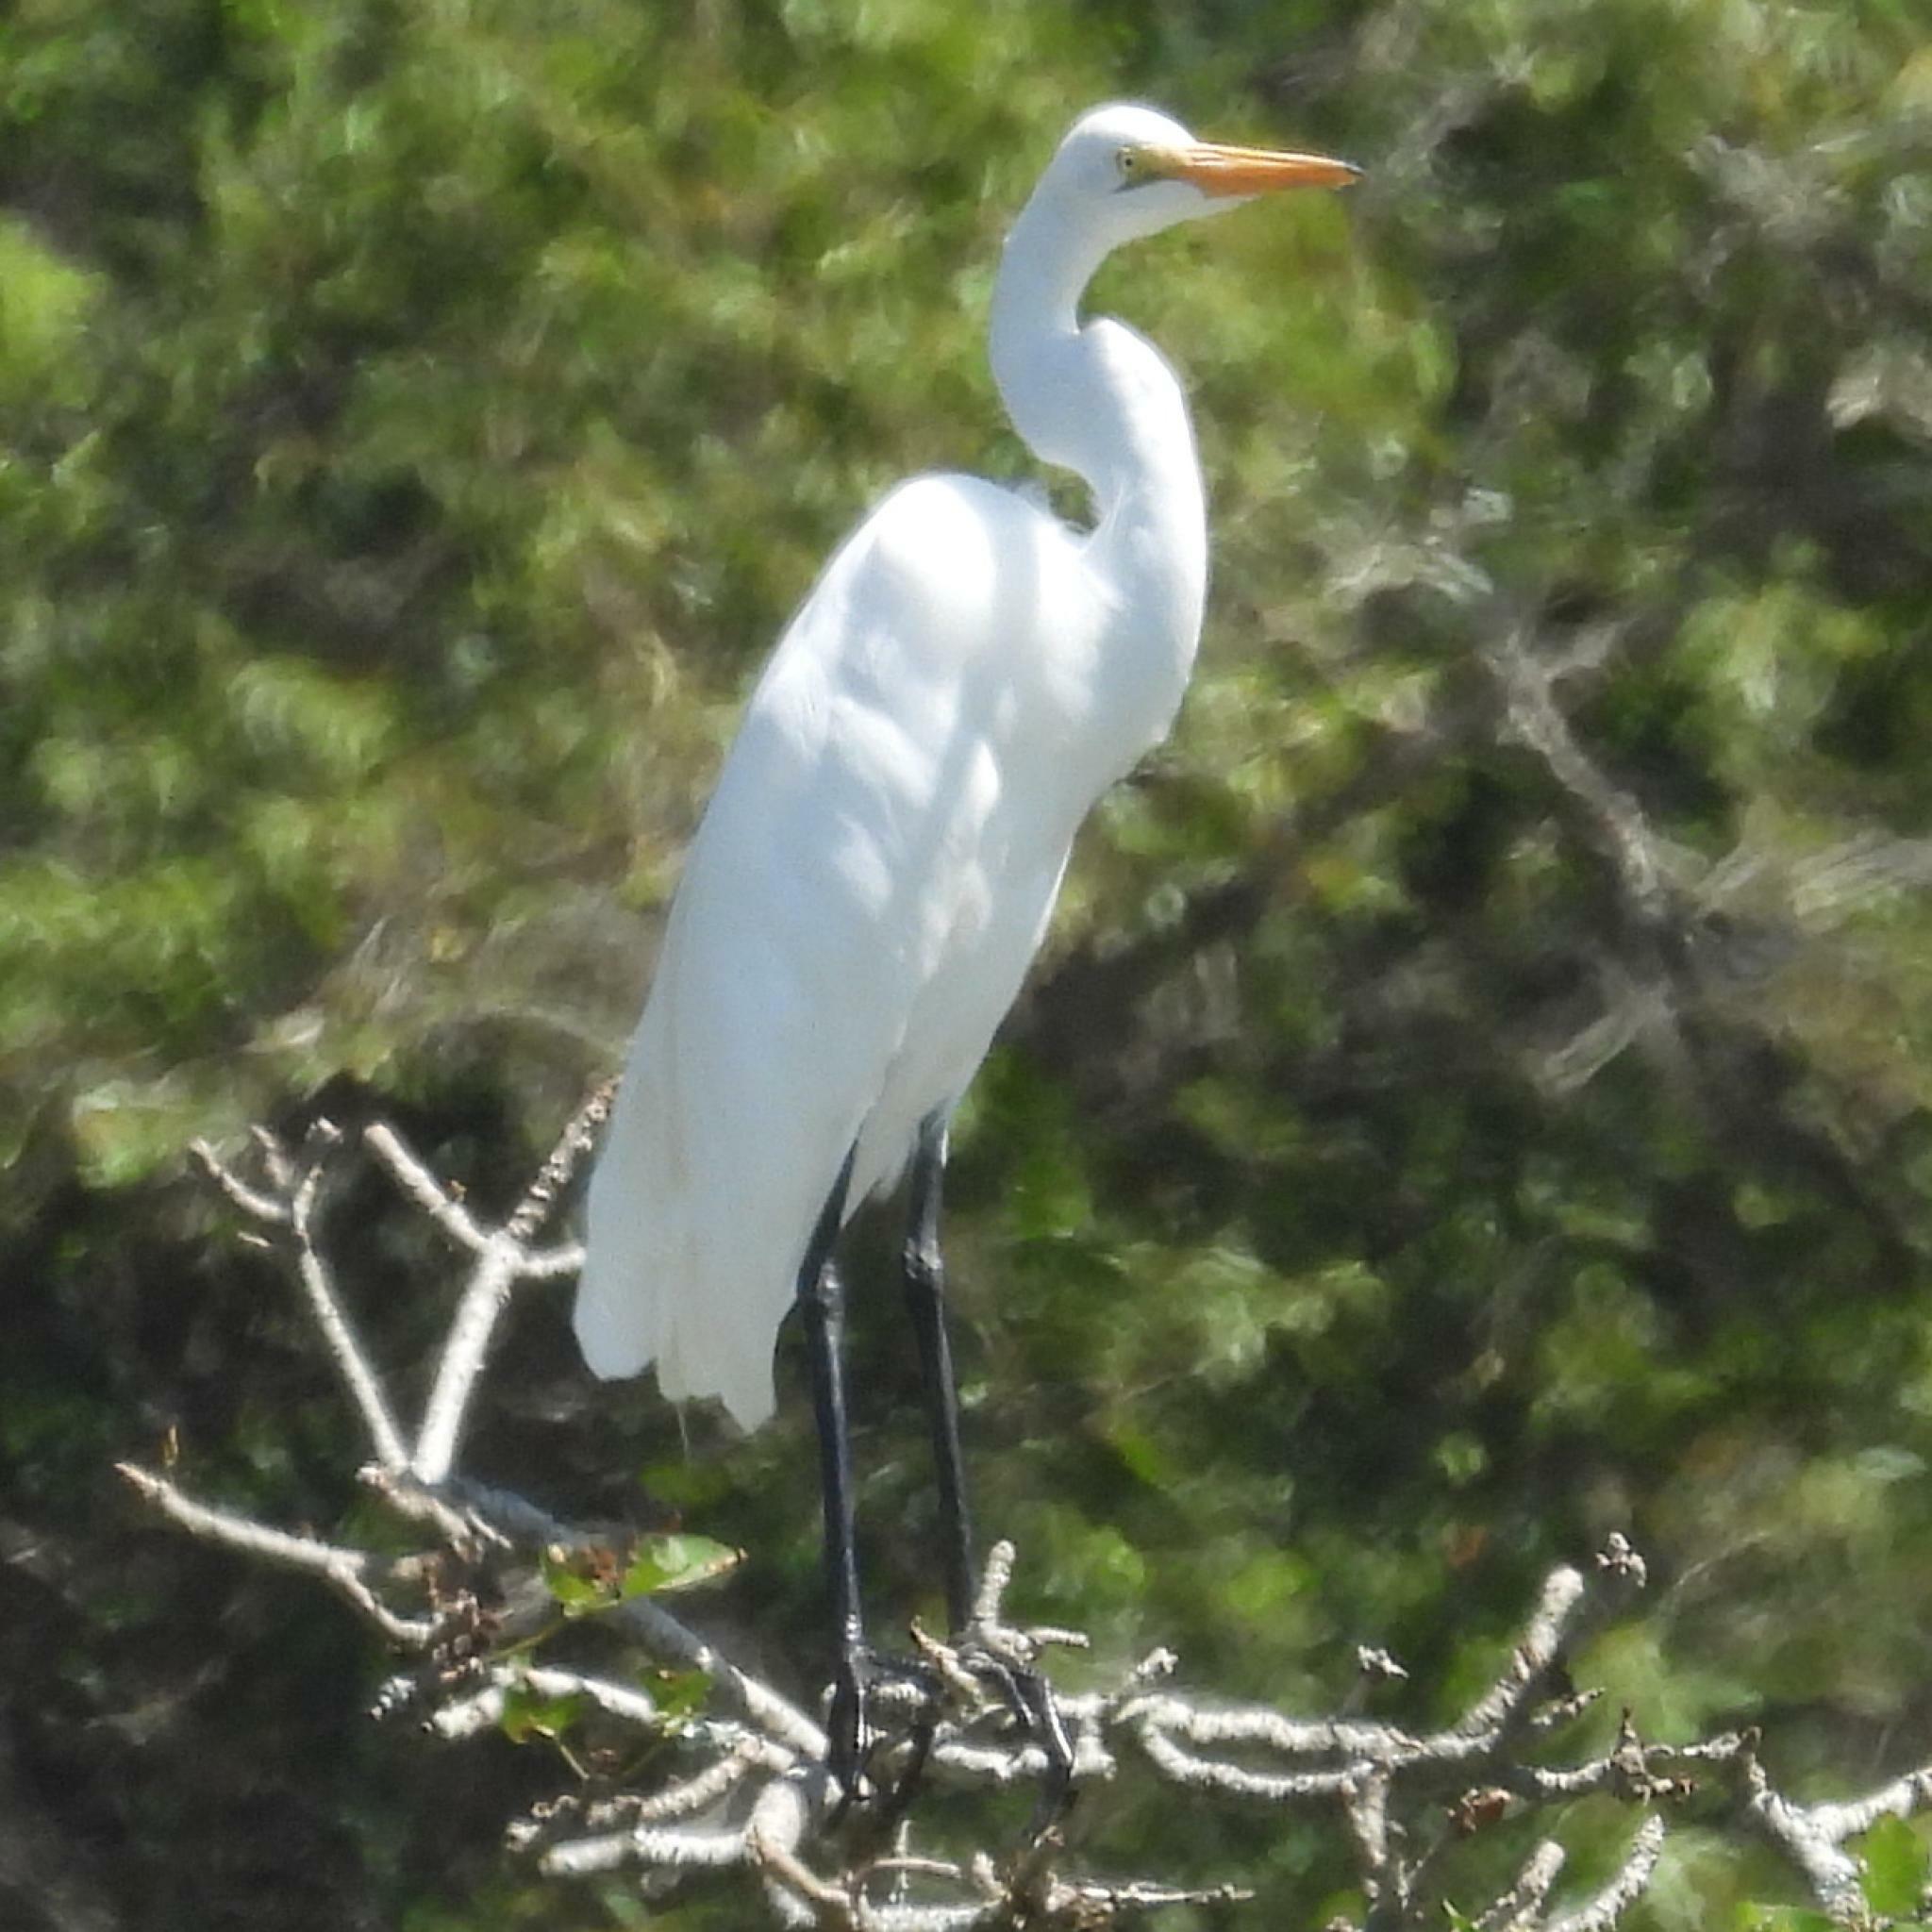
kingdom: Animalia
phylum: Chordata
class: Aves
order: Pelecaniformes
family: Ardeidae
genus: Ardea
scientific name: Ardea alba
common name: Great egret
